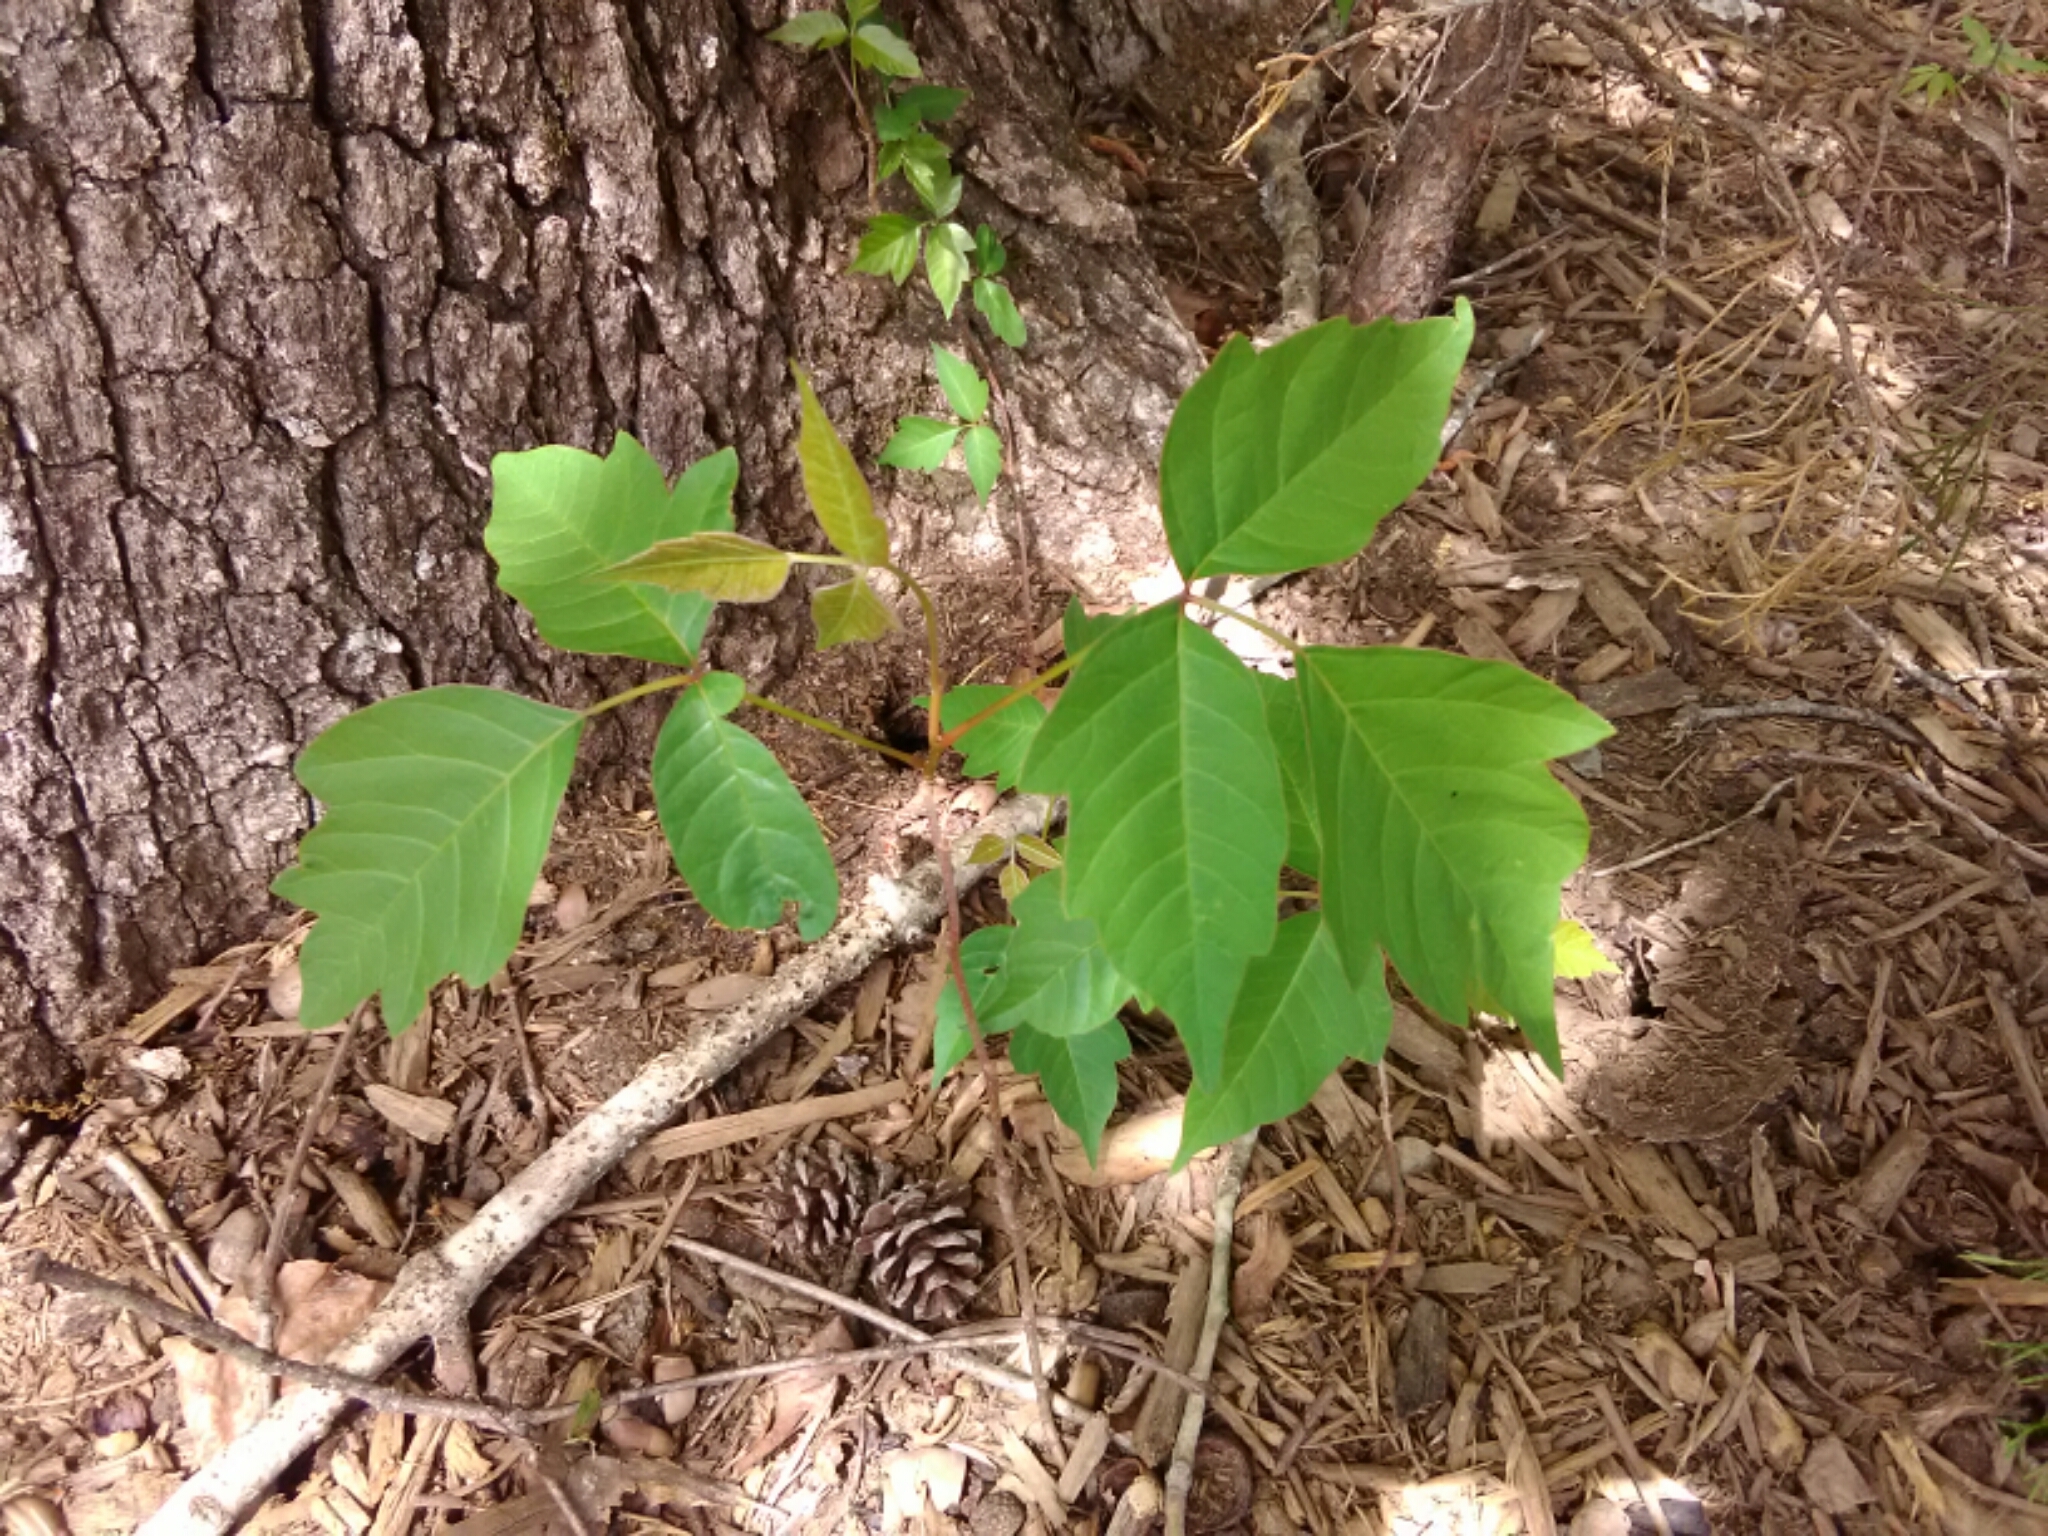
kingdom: Plantae
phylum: Tracheophyta
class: Magnoliopsida
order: Sapindales
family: Anacardiaceae
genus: Toxicodendron
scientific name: Toxicodendron radicans
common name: Poison ivy
